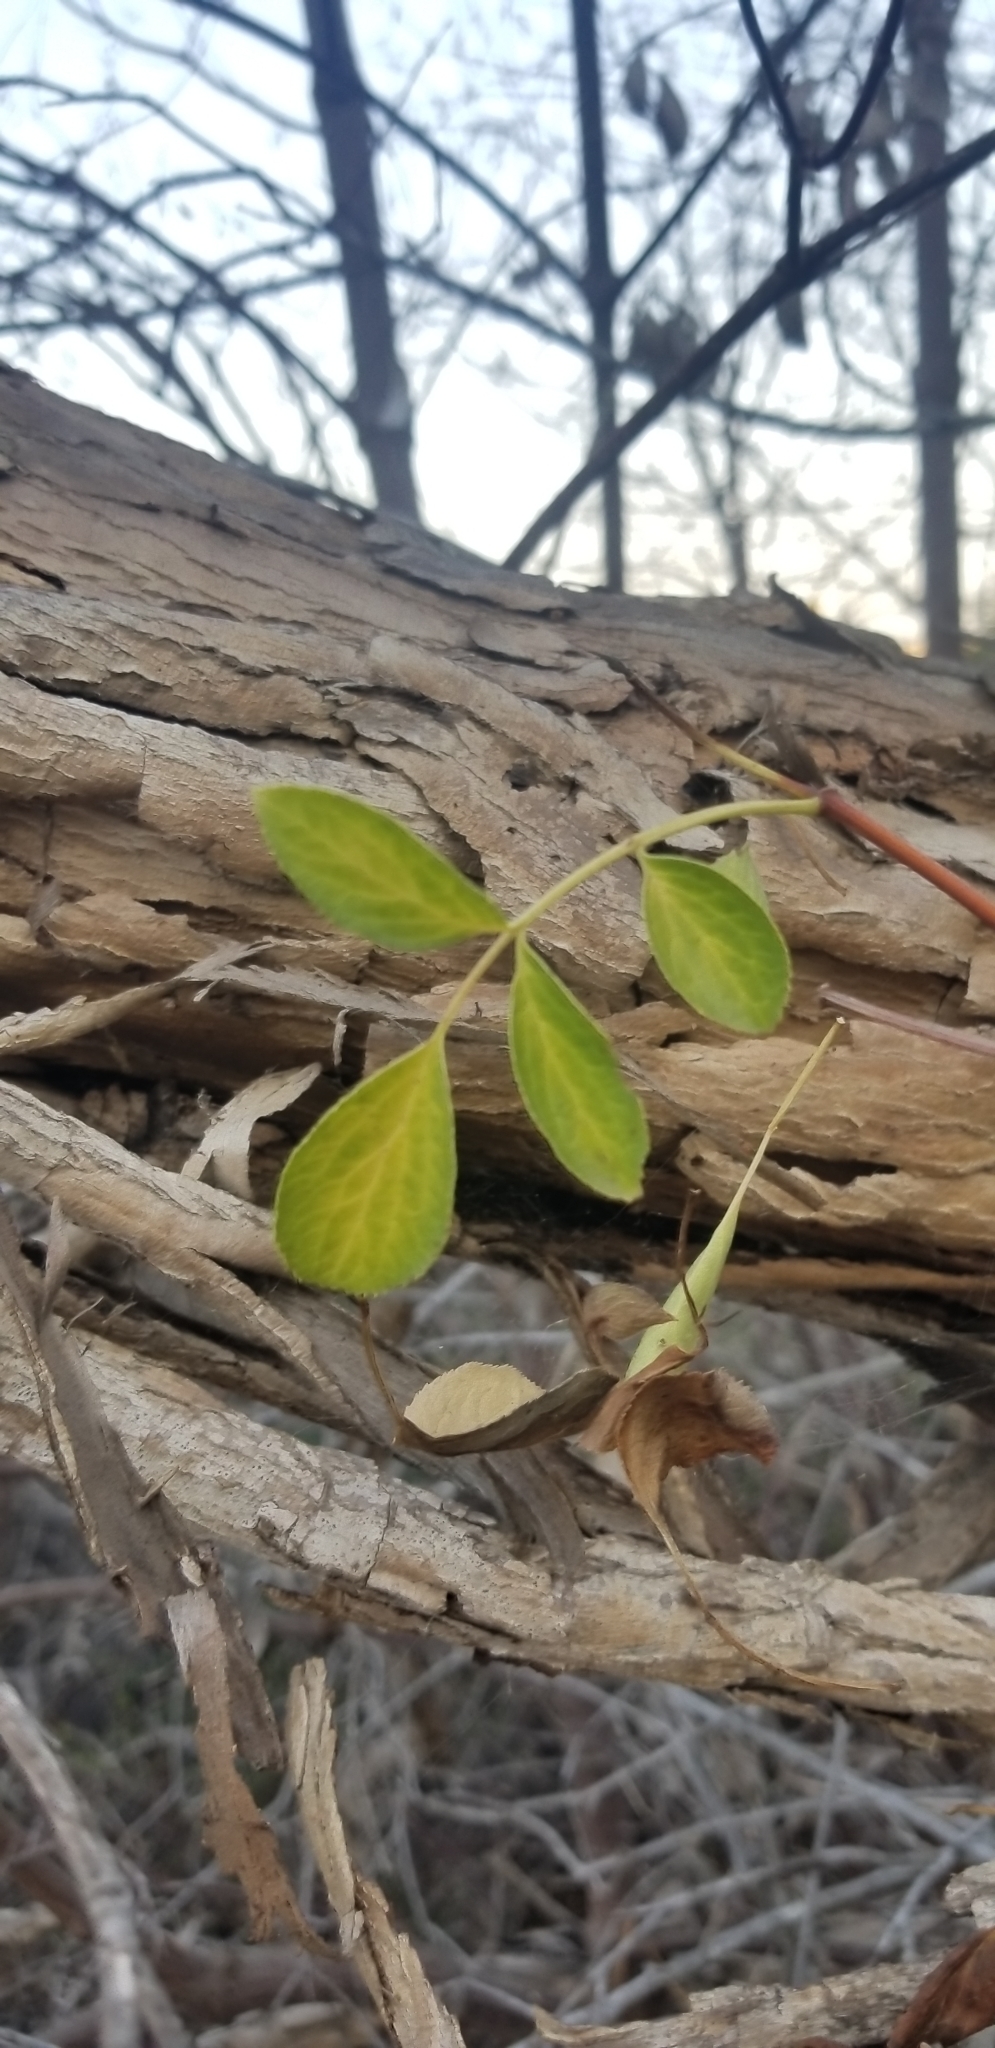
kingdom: Plantae
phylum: Tracheophyta
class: Magnoliopsida
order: Dipsacales
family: Viburnaceae
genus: Sambucus
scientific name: Sambucus cerulea
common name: Blue elder
